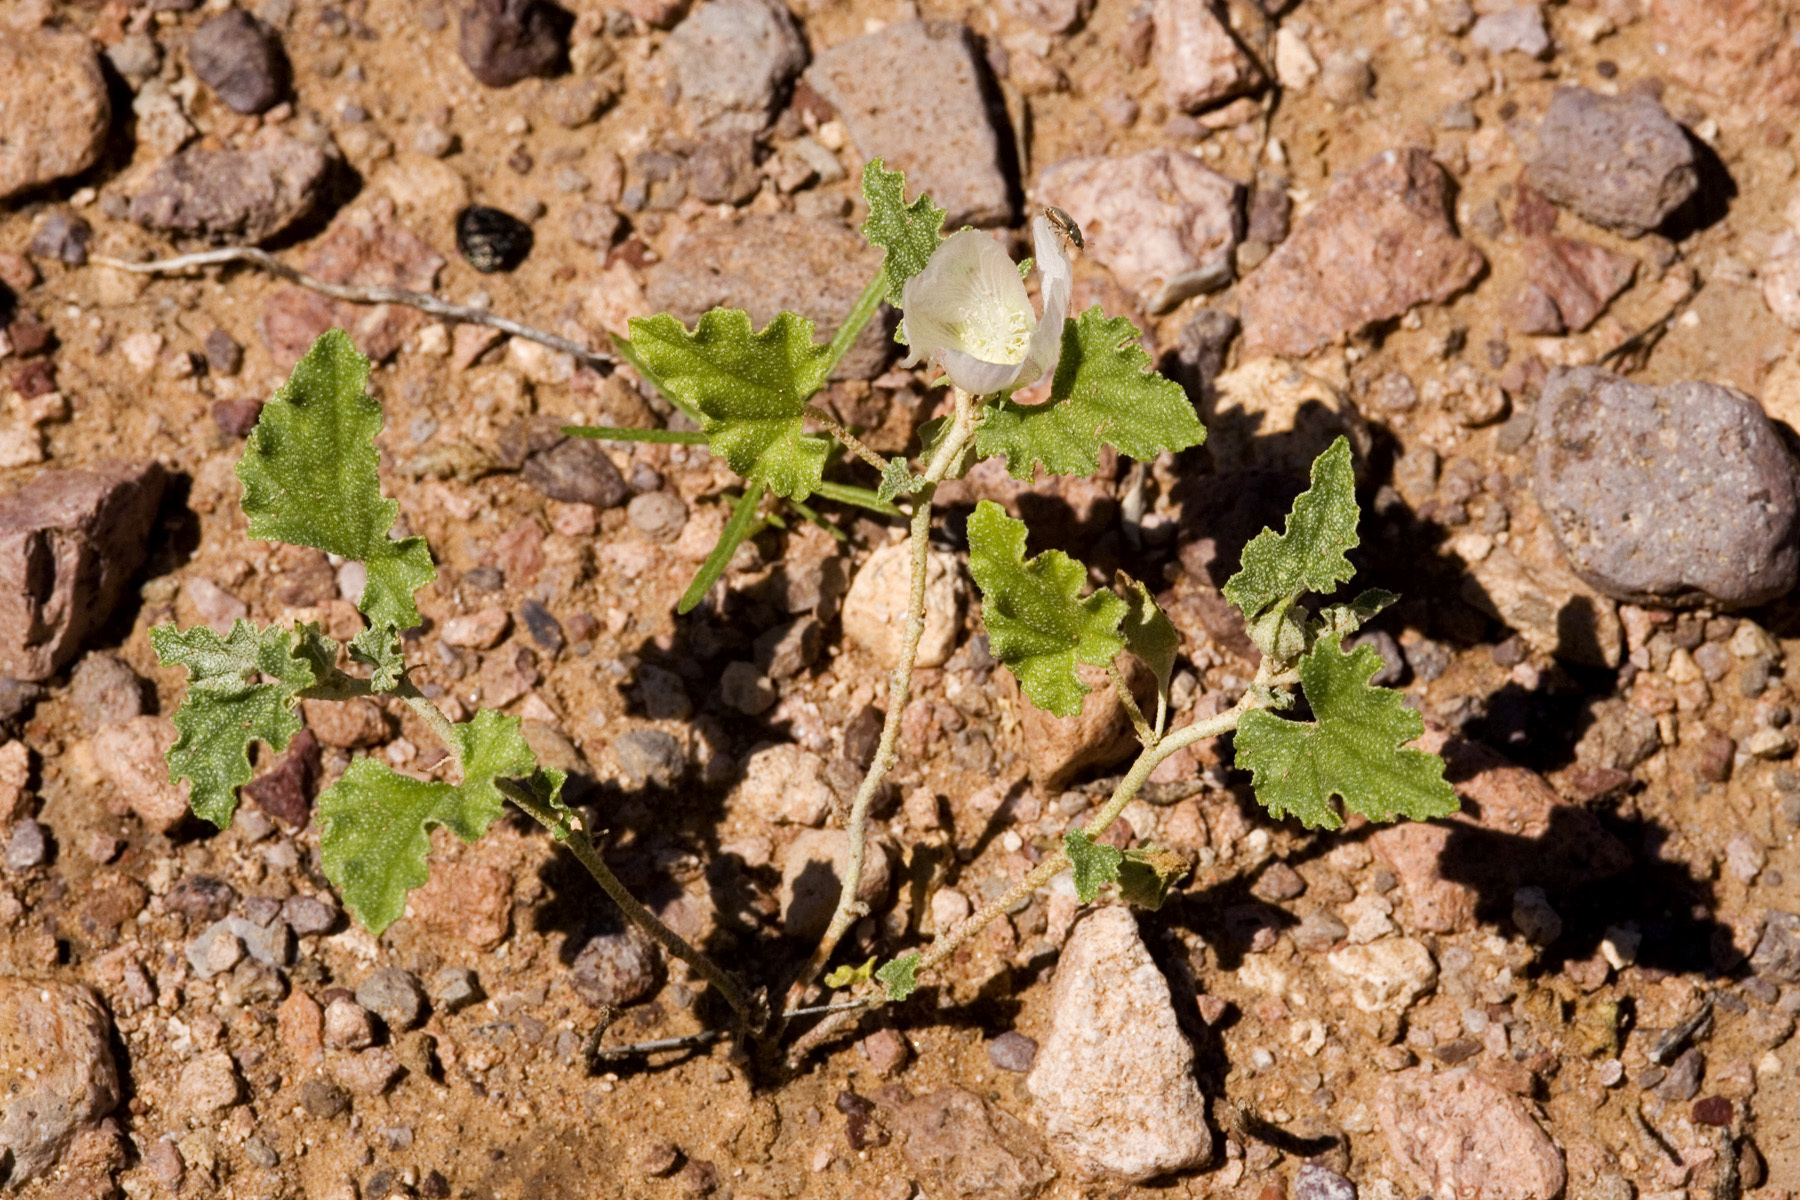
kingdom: Plantae
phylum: Tracheophyta
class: Magnoliopsida
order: Malvales
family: Malvaceae
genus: Malvella
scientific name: Malvella lepidota
